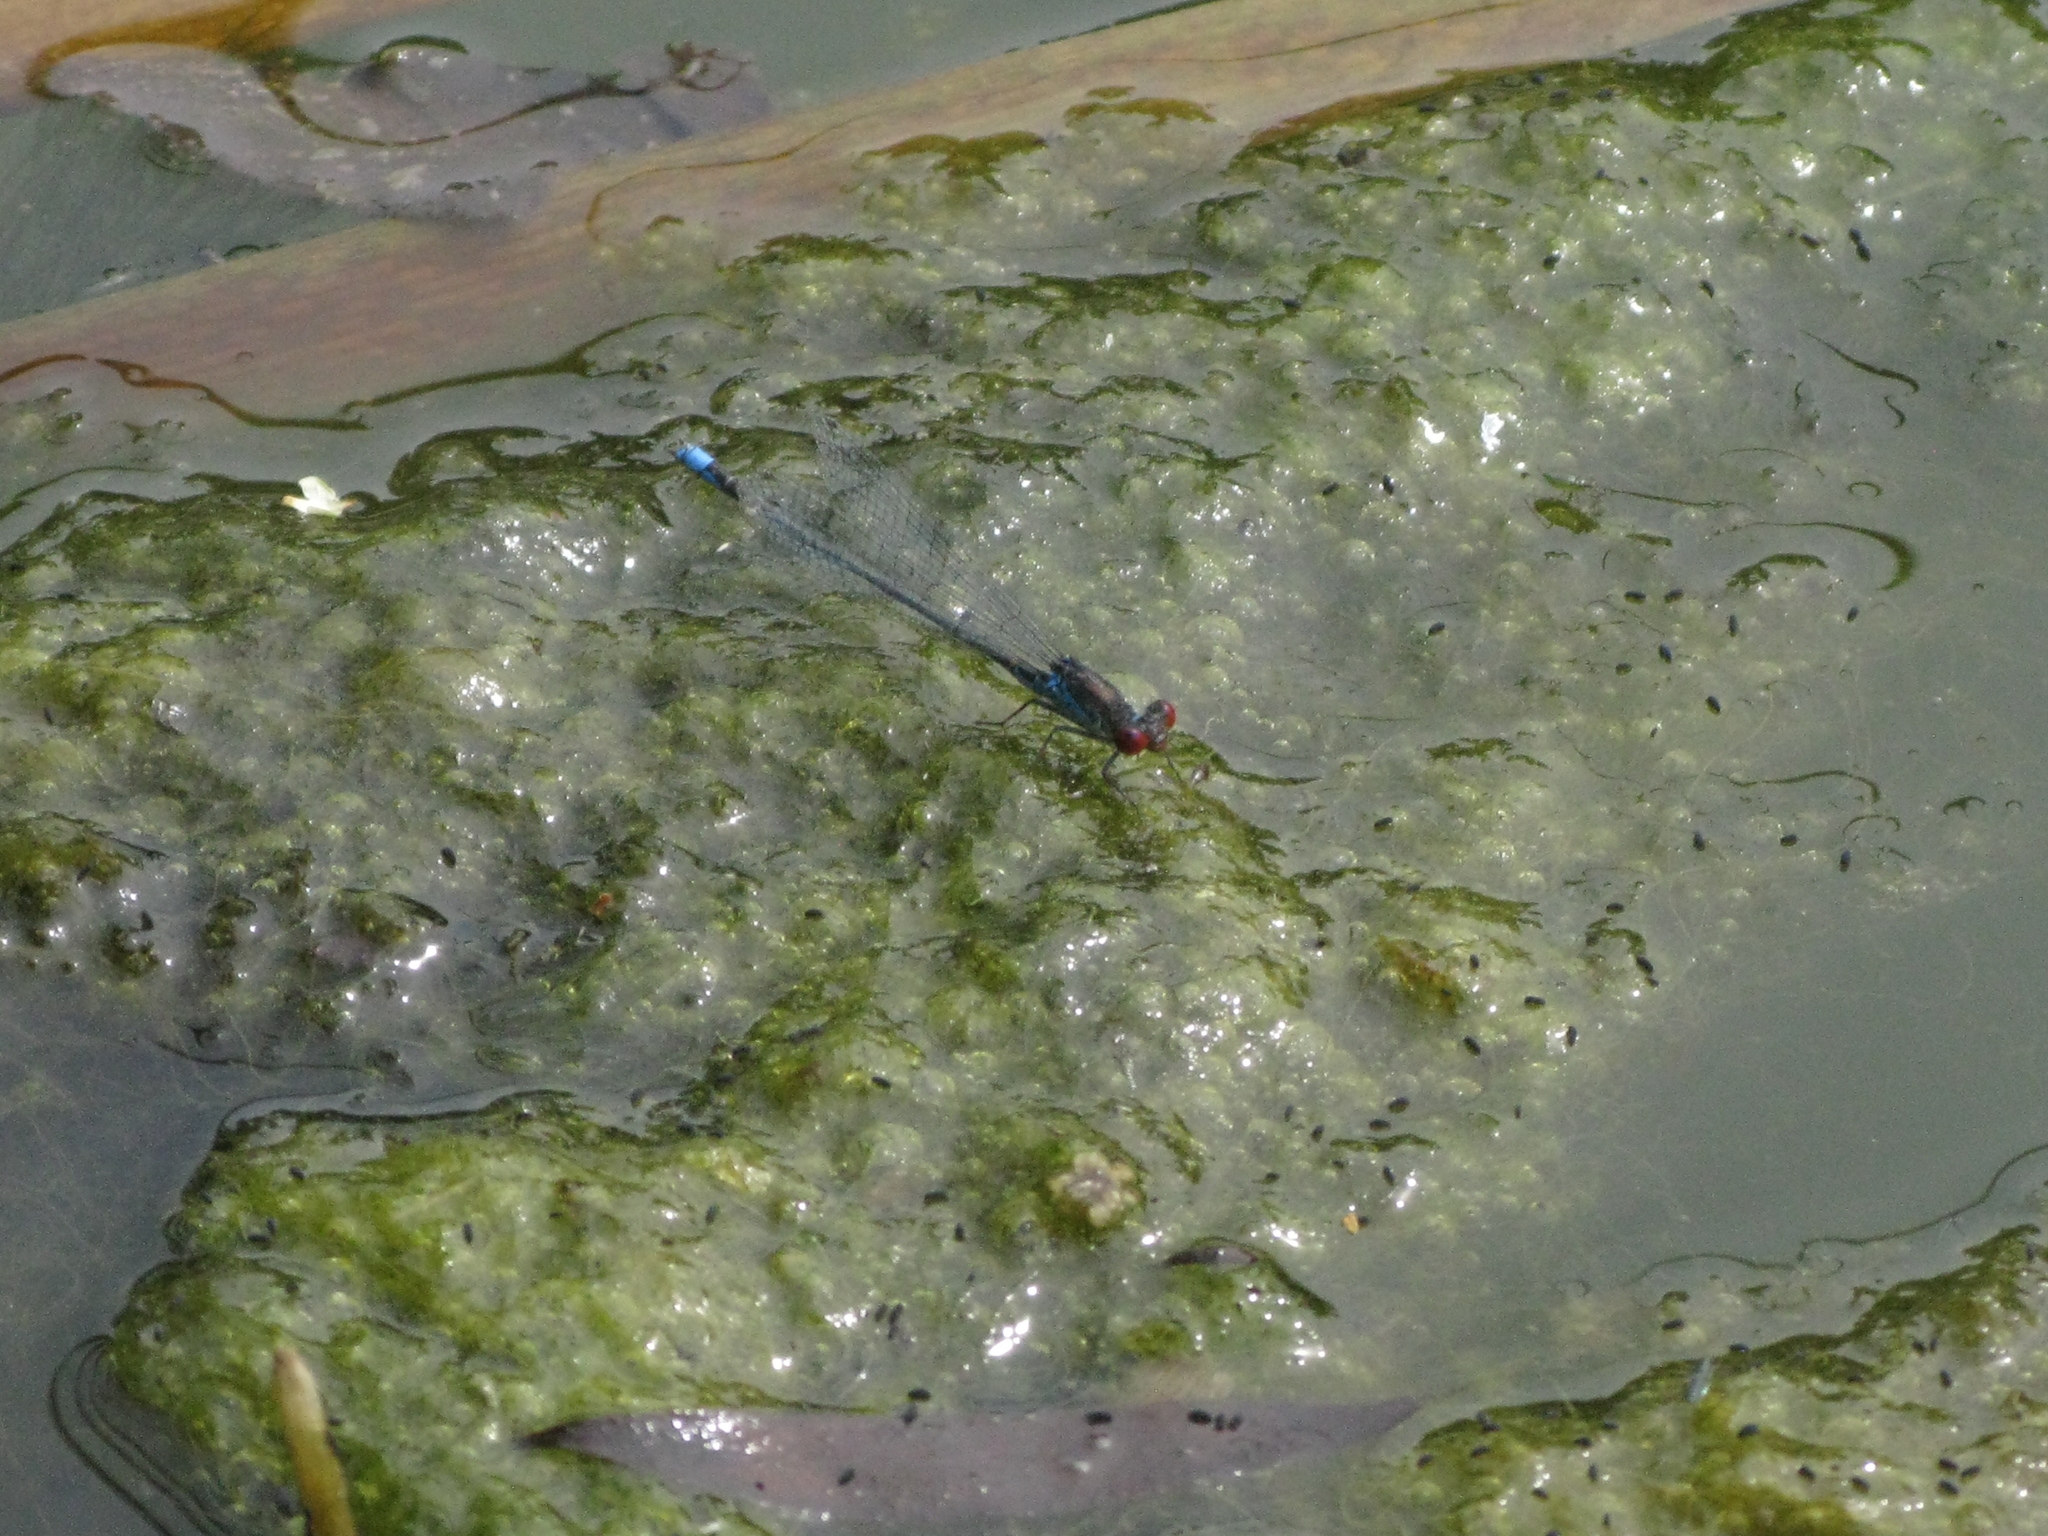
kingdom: Animalia
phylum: Arthropoda
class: Insecta
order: Odonata
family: Coenagrionidae
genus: Erythromma
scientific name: Erythromma viridulum
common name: Small red-eyed damselfly
